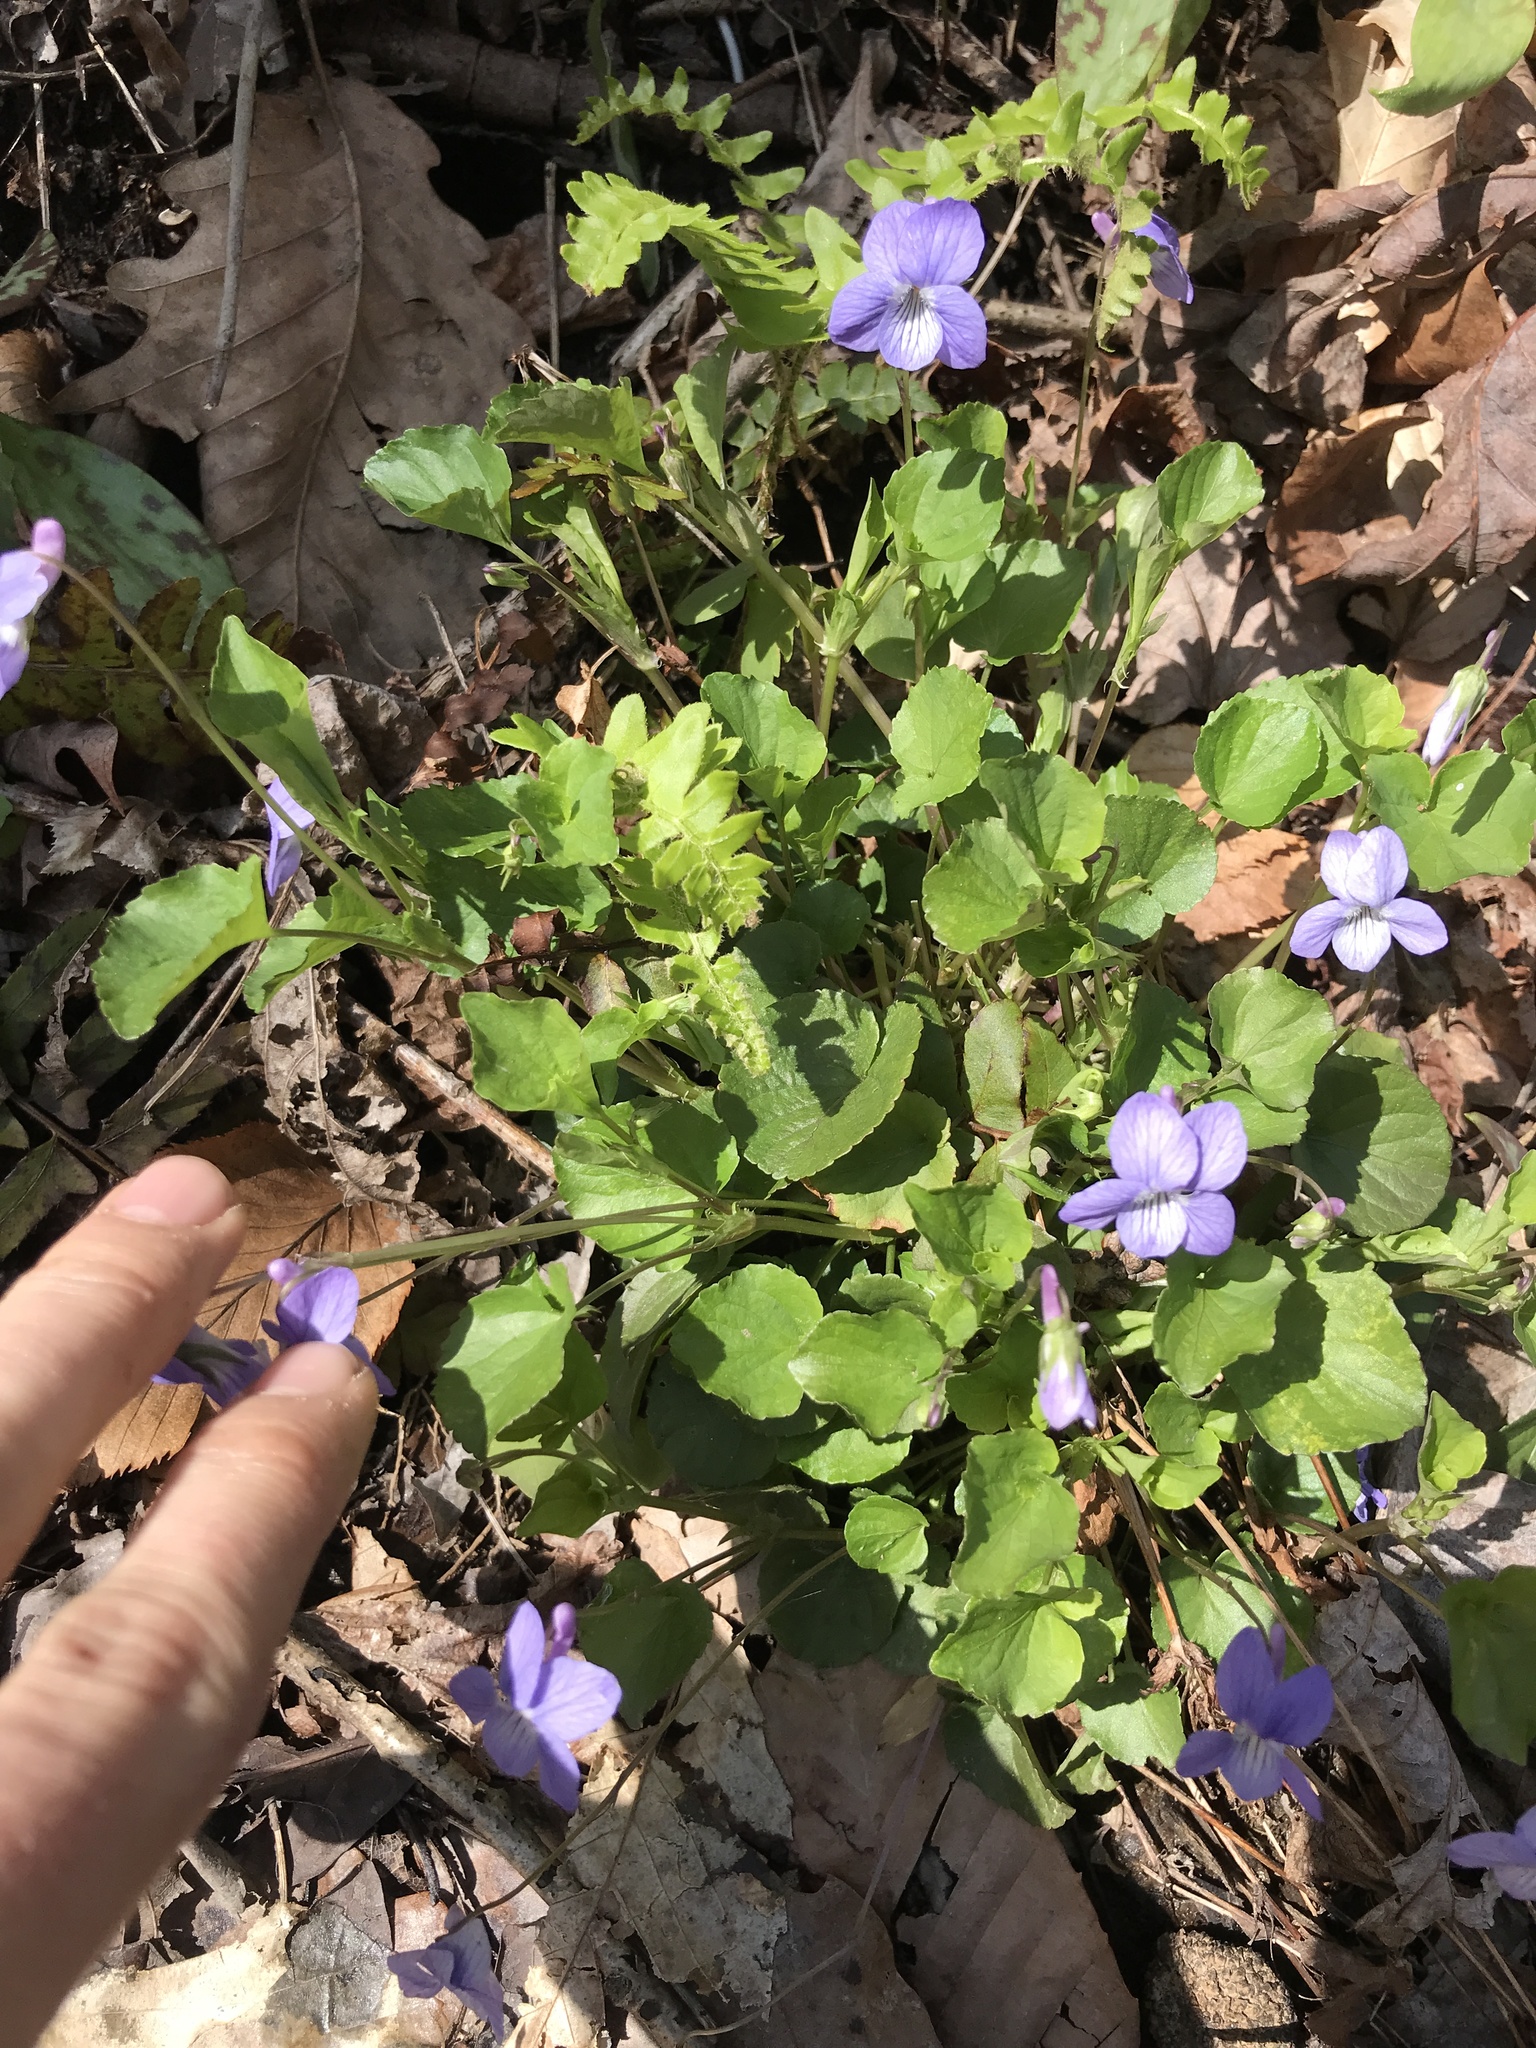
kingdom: Plantae
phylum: Tracheophyta
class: Magnoliopsida
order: Malpighiales
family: Violaceae
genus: Viola
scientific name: Viola cucullata
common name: Marsh blue violet
